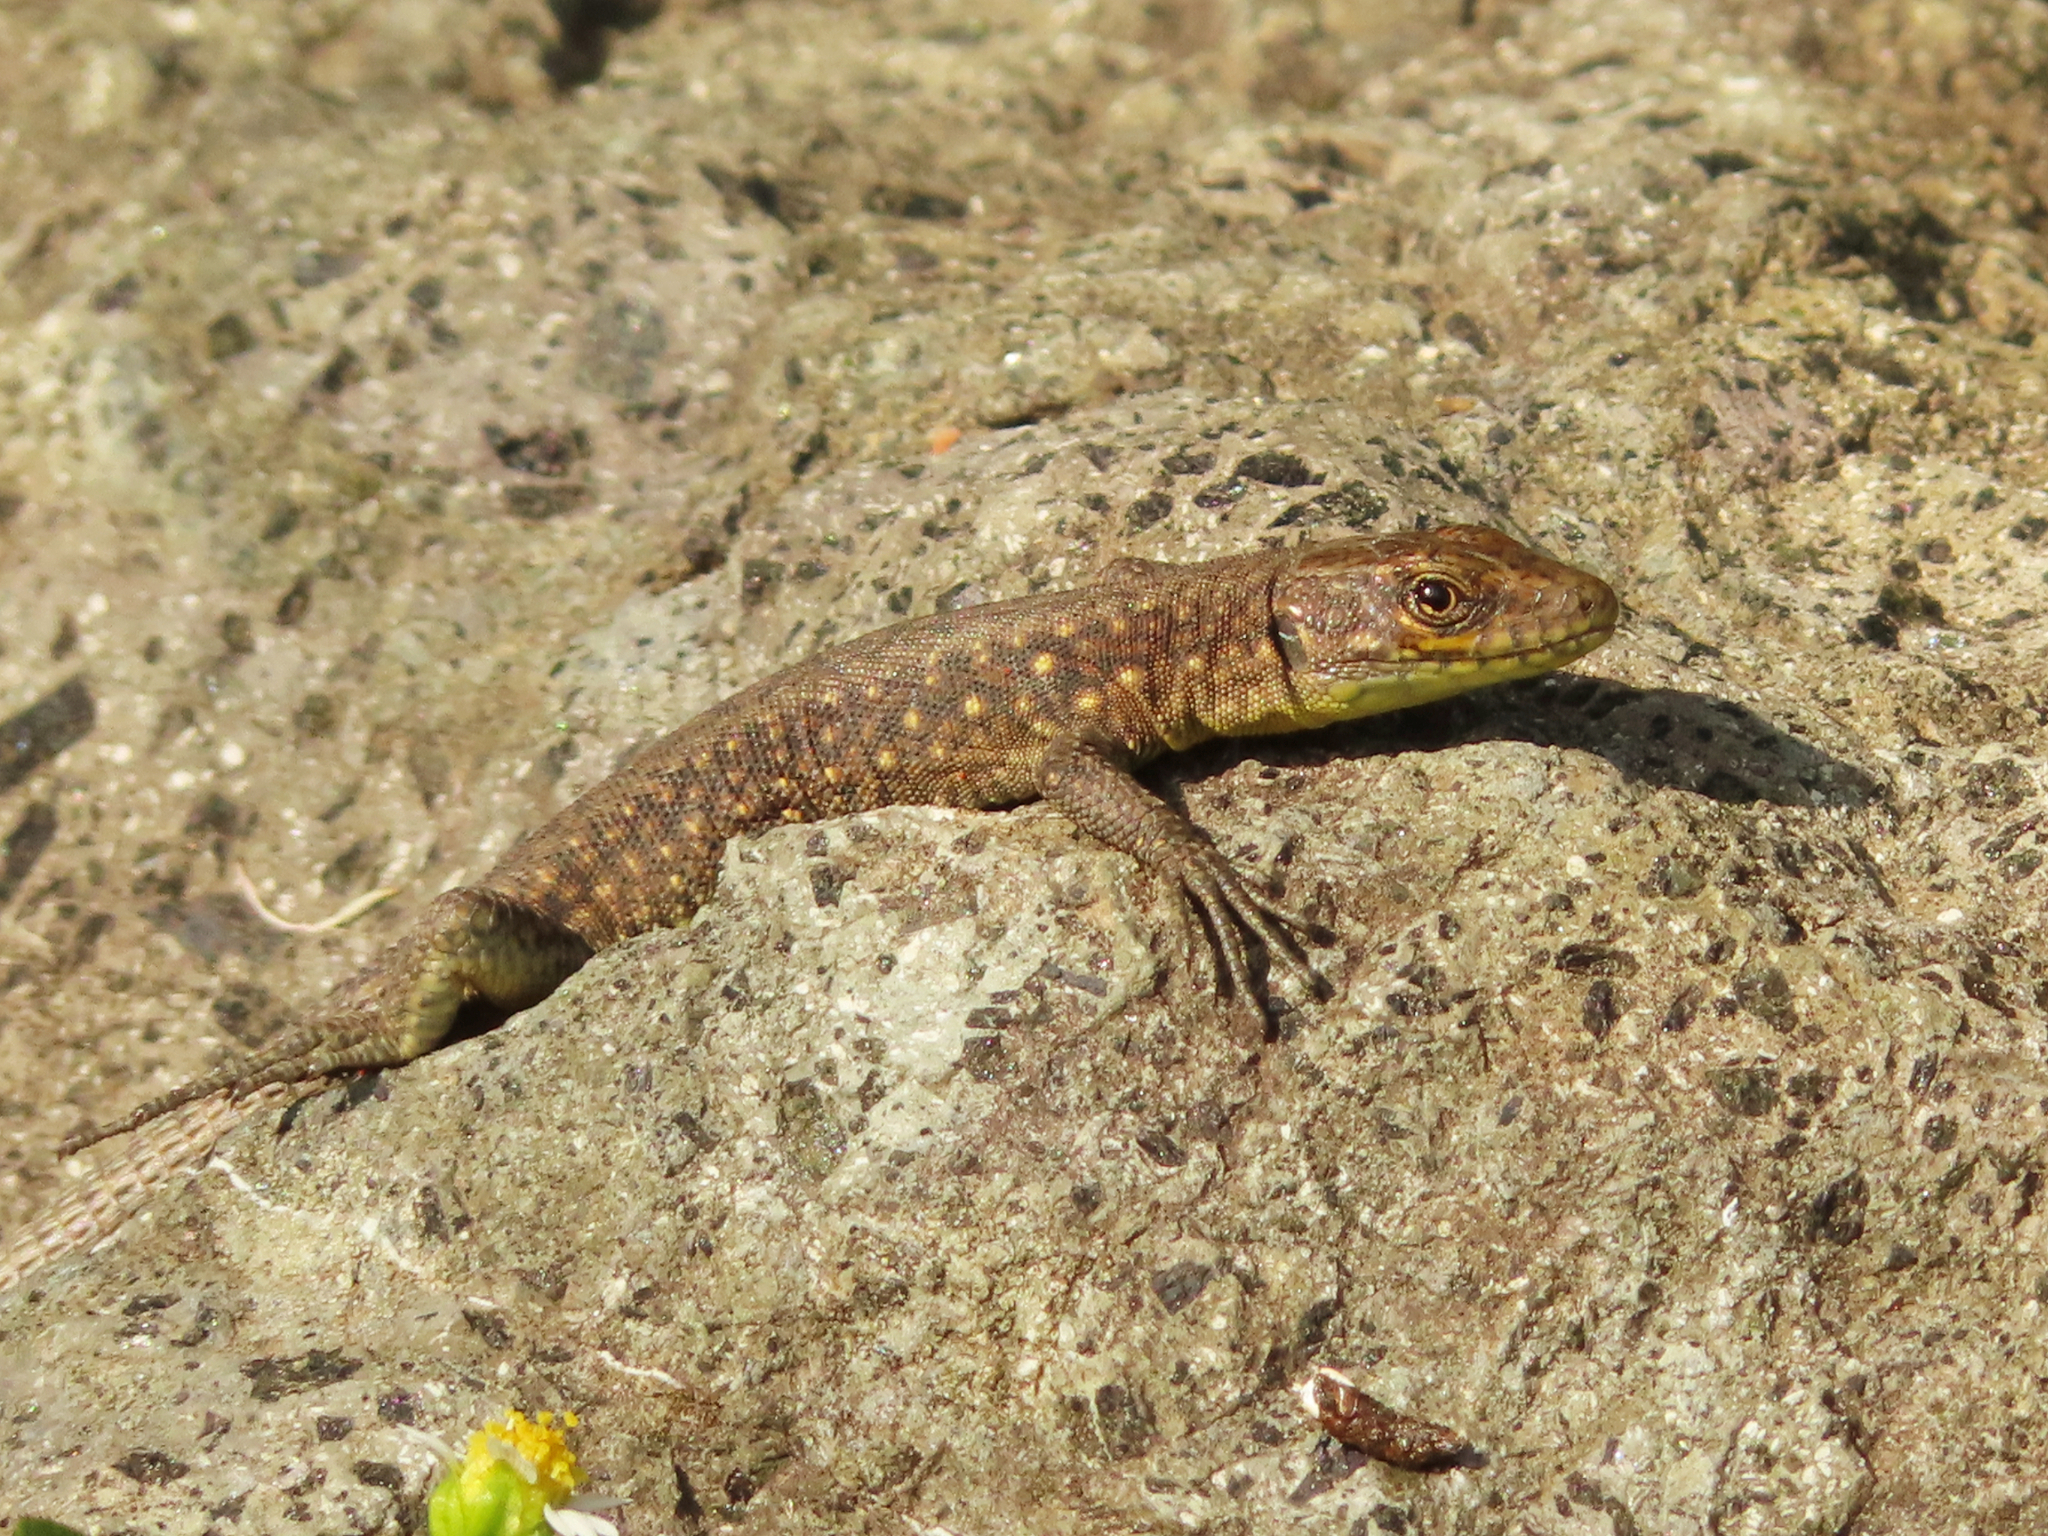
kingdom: Animalia
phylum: Chordata
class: Squamata
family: Lacertidae
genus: Darevskia
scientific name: Darevskia rudis
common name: Spiny-tailed lizard
